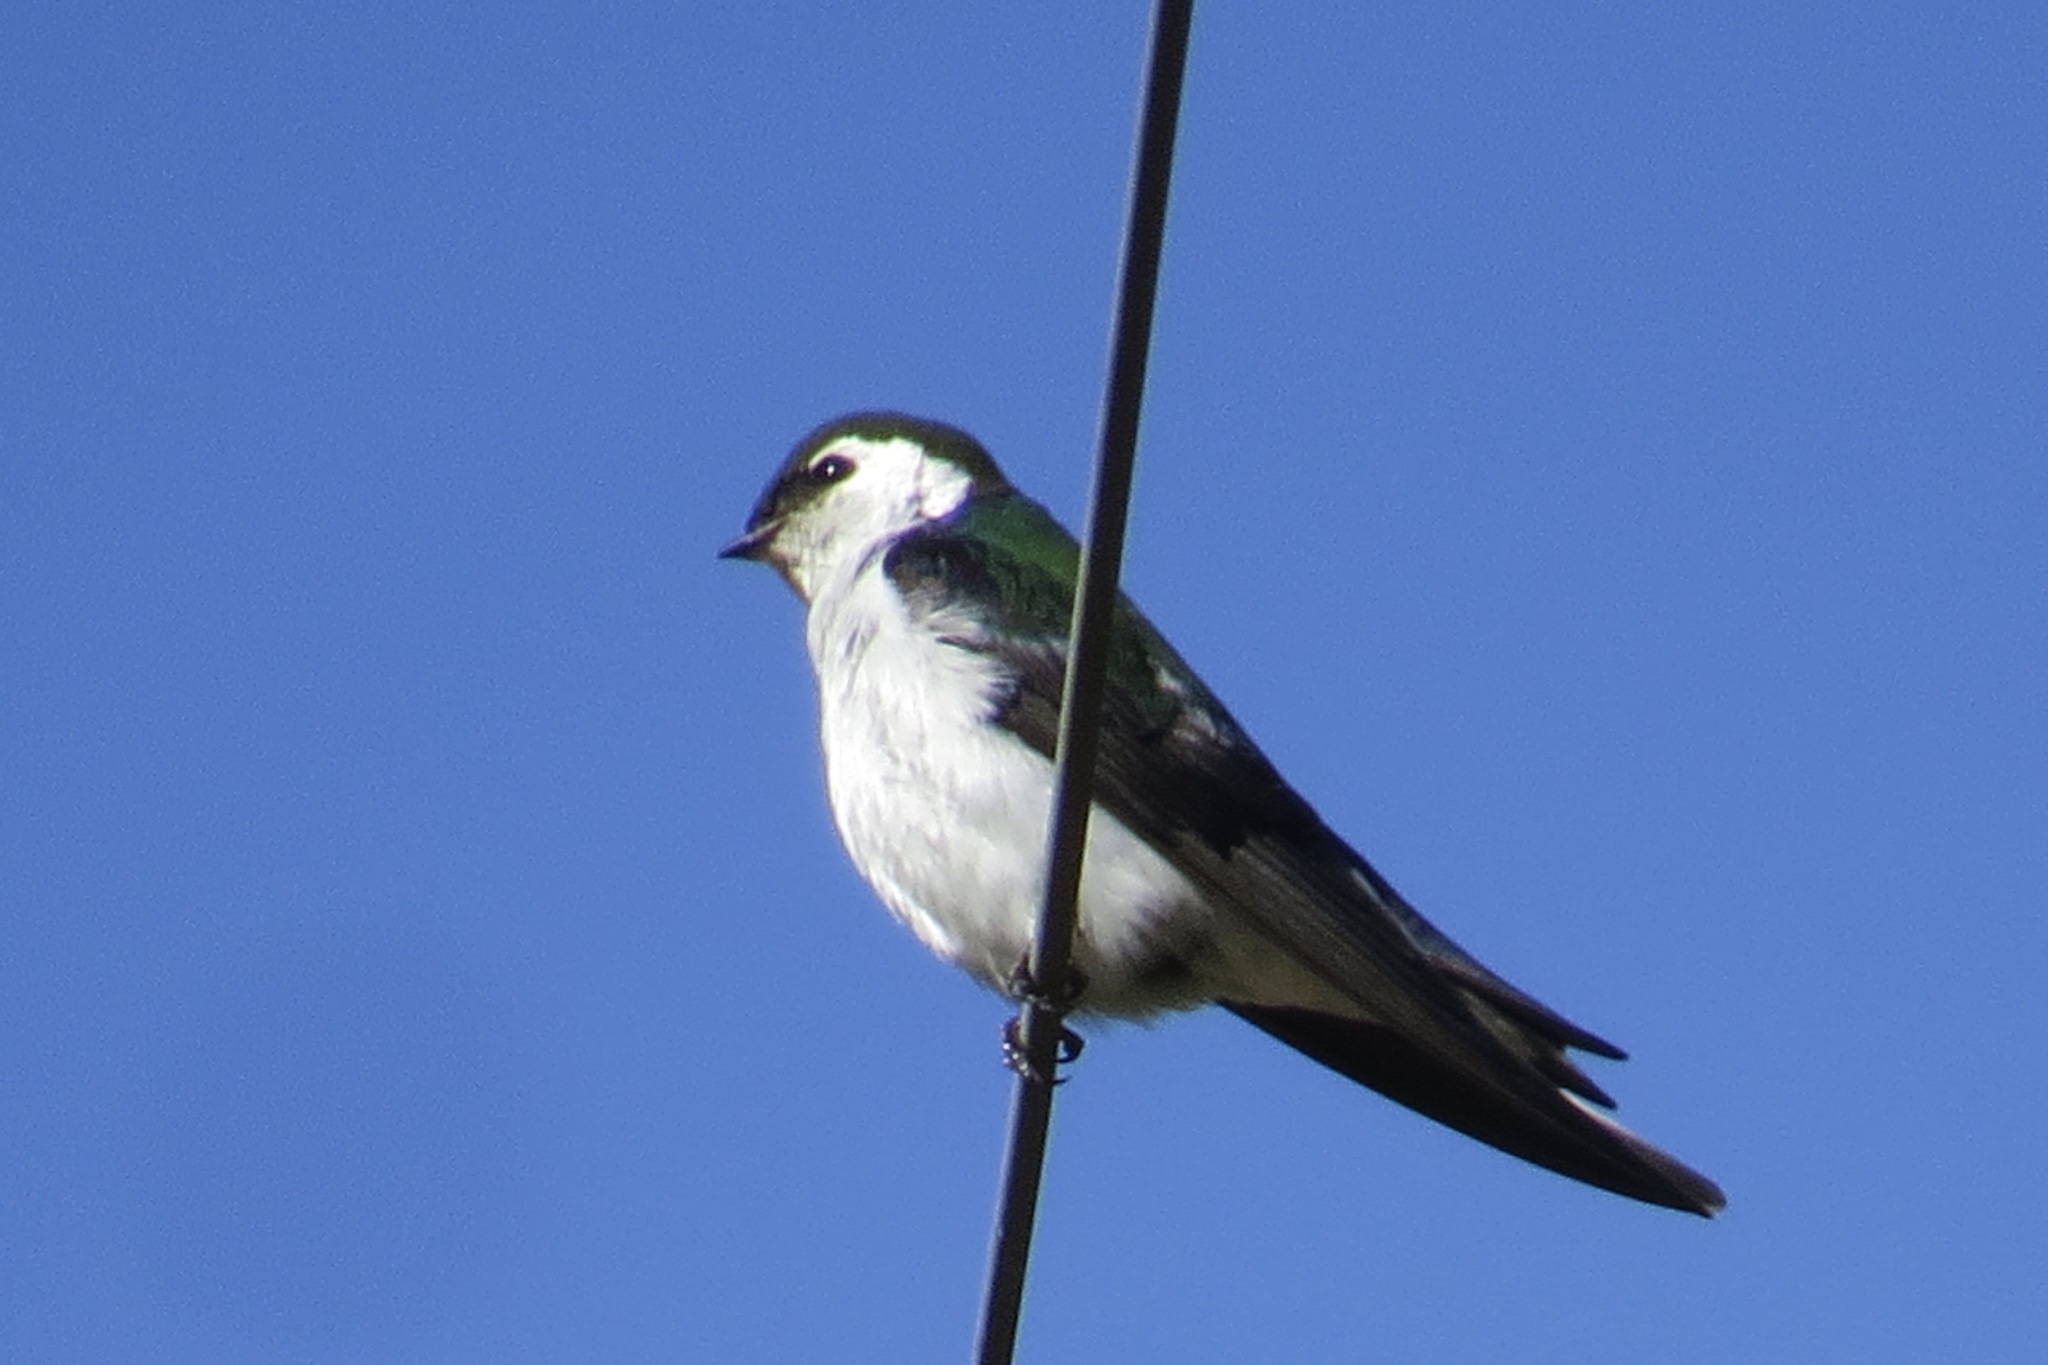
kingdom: Animalia
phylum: Chordata
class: Aves
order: Passeriformes
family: Hirundinidae
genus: Tachycineta
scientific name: Tachycineta thalassina
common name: Violet-green swallow
